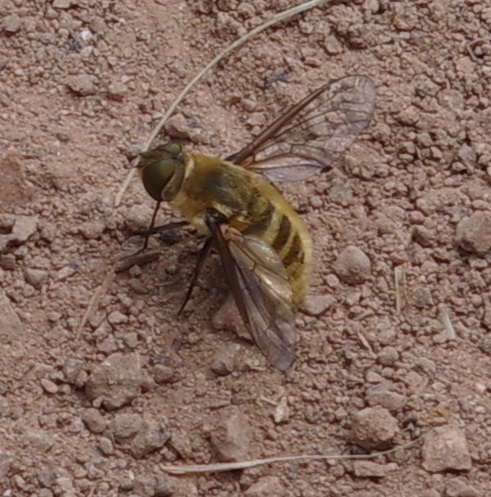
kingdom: Animalia
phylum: Arthropoda
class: Insecta
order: Diptera
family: Bombyliidae
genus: Villa
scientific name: Villa hottentotta
